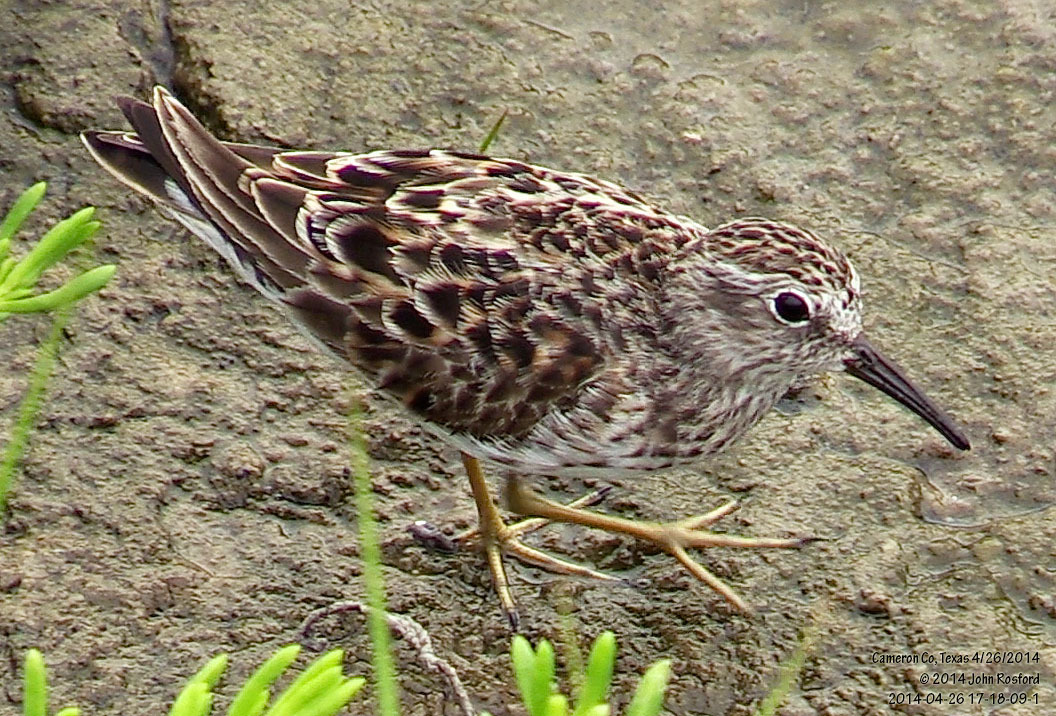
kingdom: Animalia
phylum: Chordata
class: Aves
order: Charadriiformes
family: Scolopacidae
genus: Calidris
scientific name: Calidris minutilla
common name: Least sandpiper
